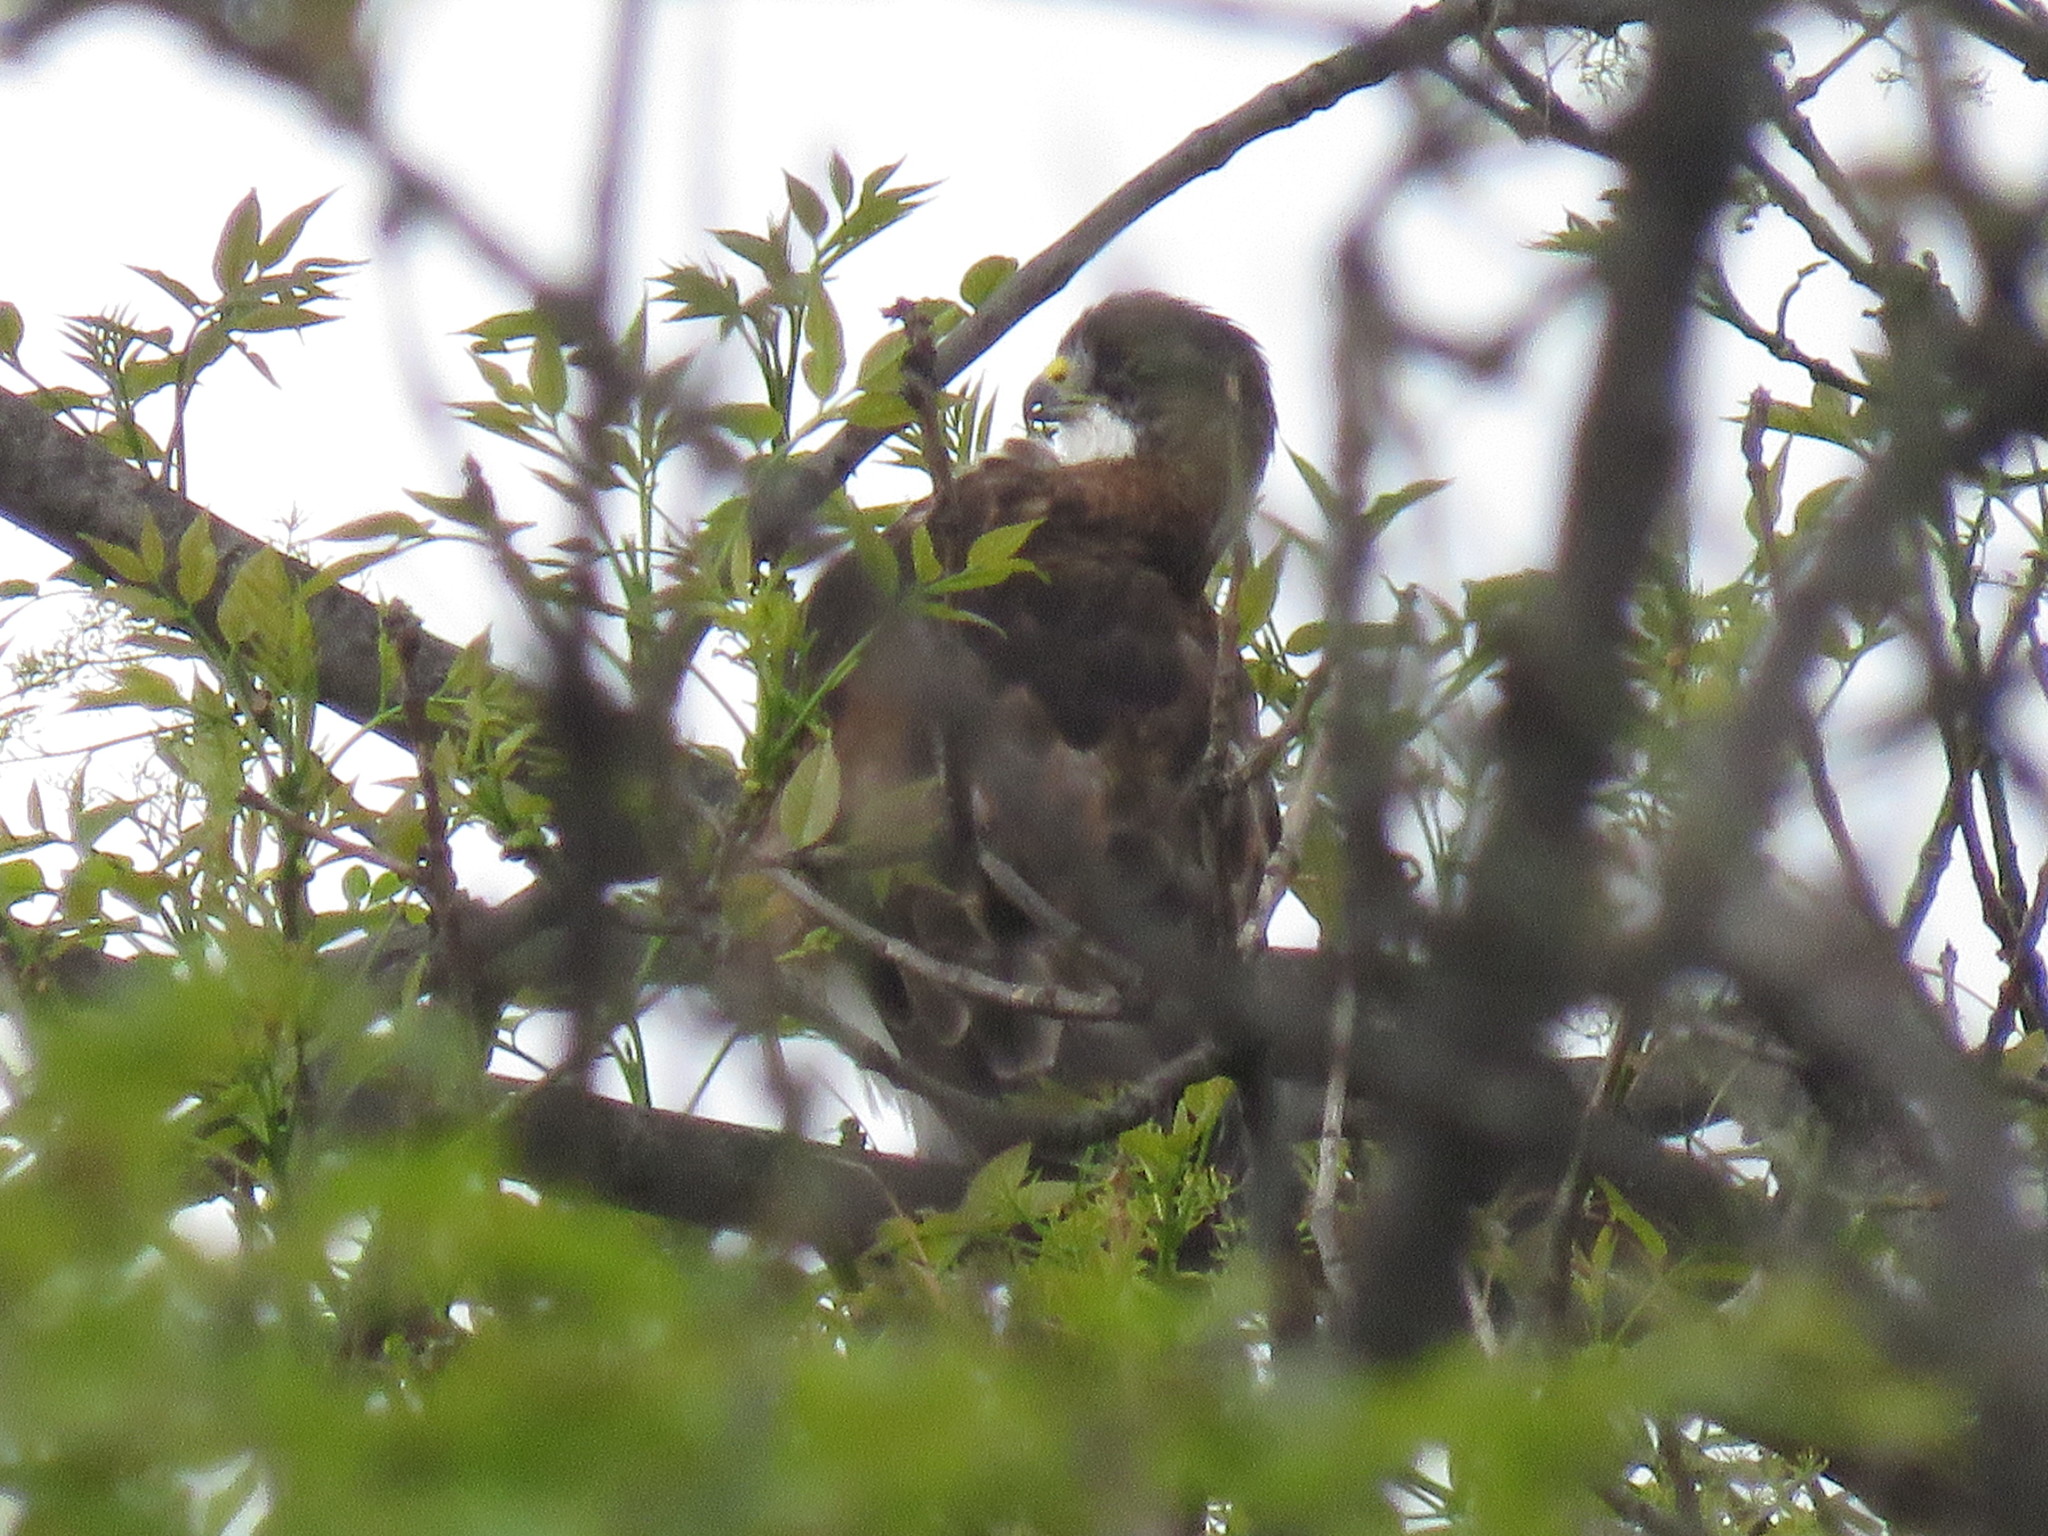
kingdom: Animalia
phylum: Chordata
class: Aves
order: Accipitriformes
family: Accipitridae
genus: Buteo
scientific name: Buteo albigula
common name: White-throated hawk
